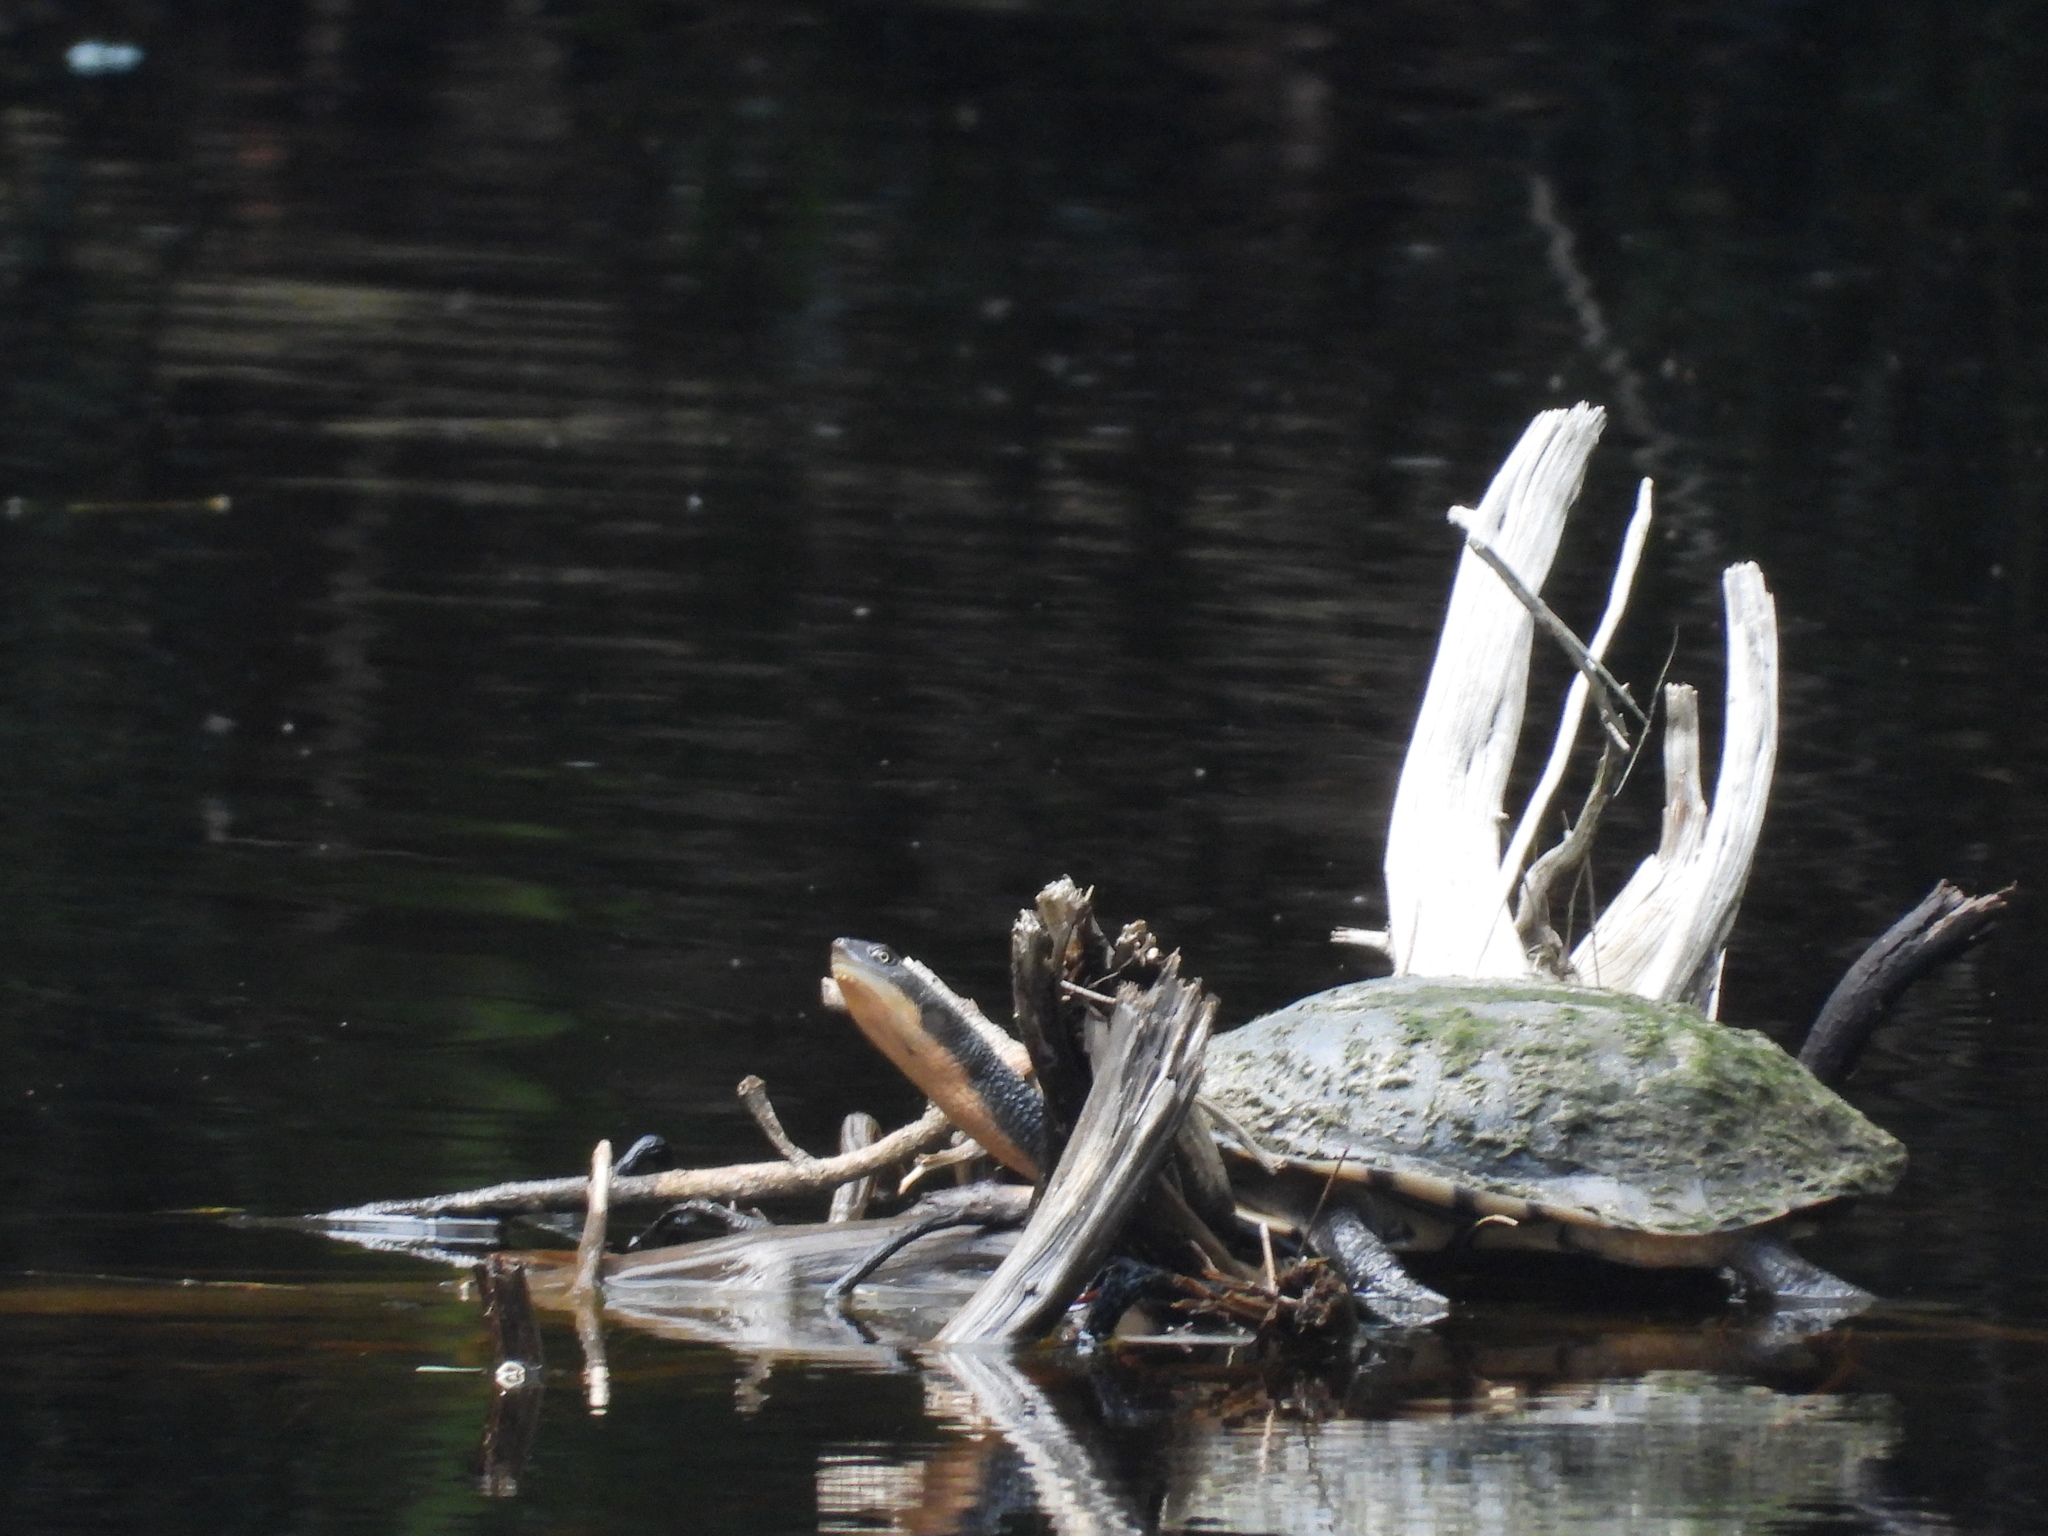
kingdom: Animalia
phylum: Chordata
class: Testudines
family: Chelidae
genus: Chelodina
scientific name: Chelodina longicollis
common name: Eastern snake-necked turtle
